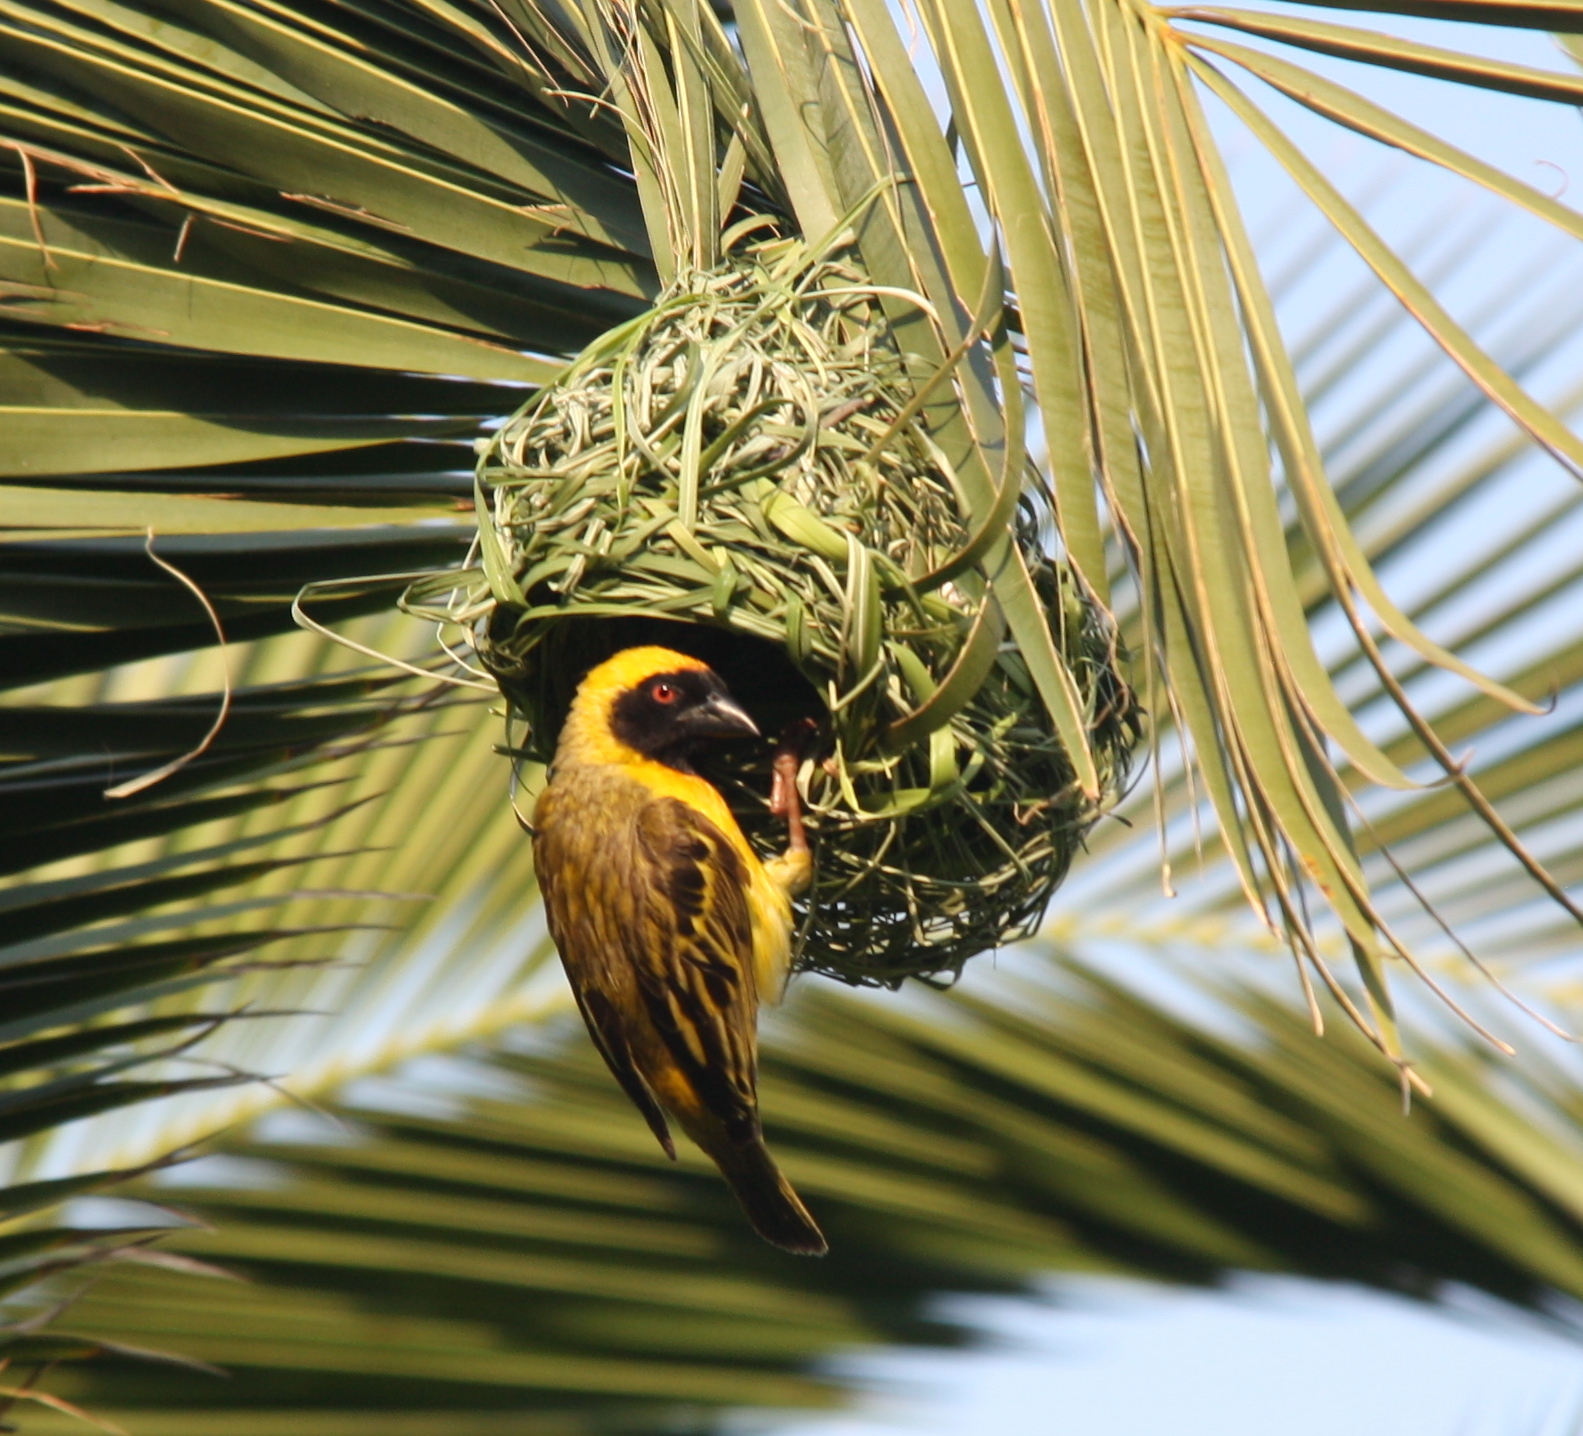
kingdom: Animalia
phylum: Chordata
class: Aves
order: Passeriformes
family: Ploceidae
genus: Ploceus
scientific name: Ploceus velatus
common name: Southern masked weaver
